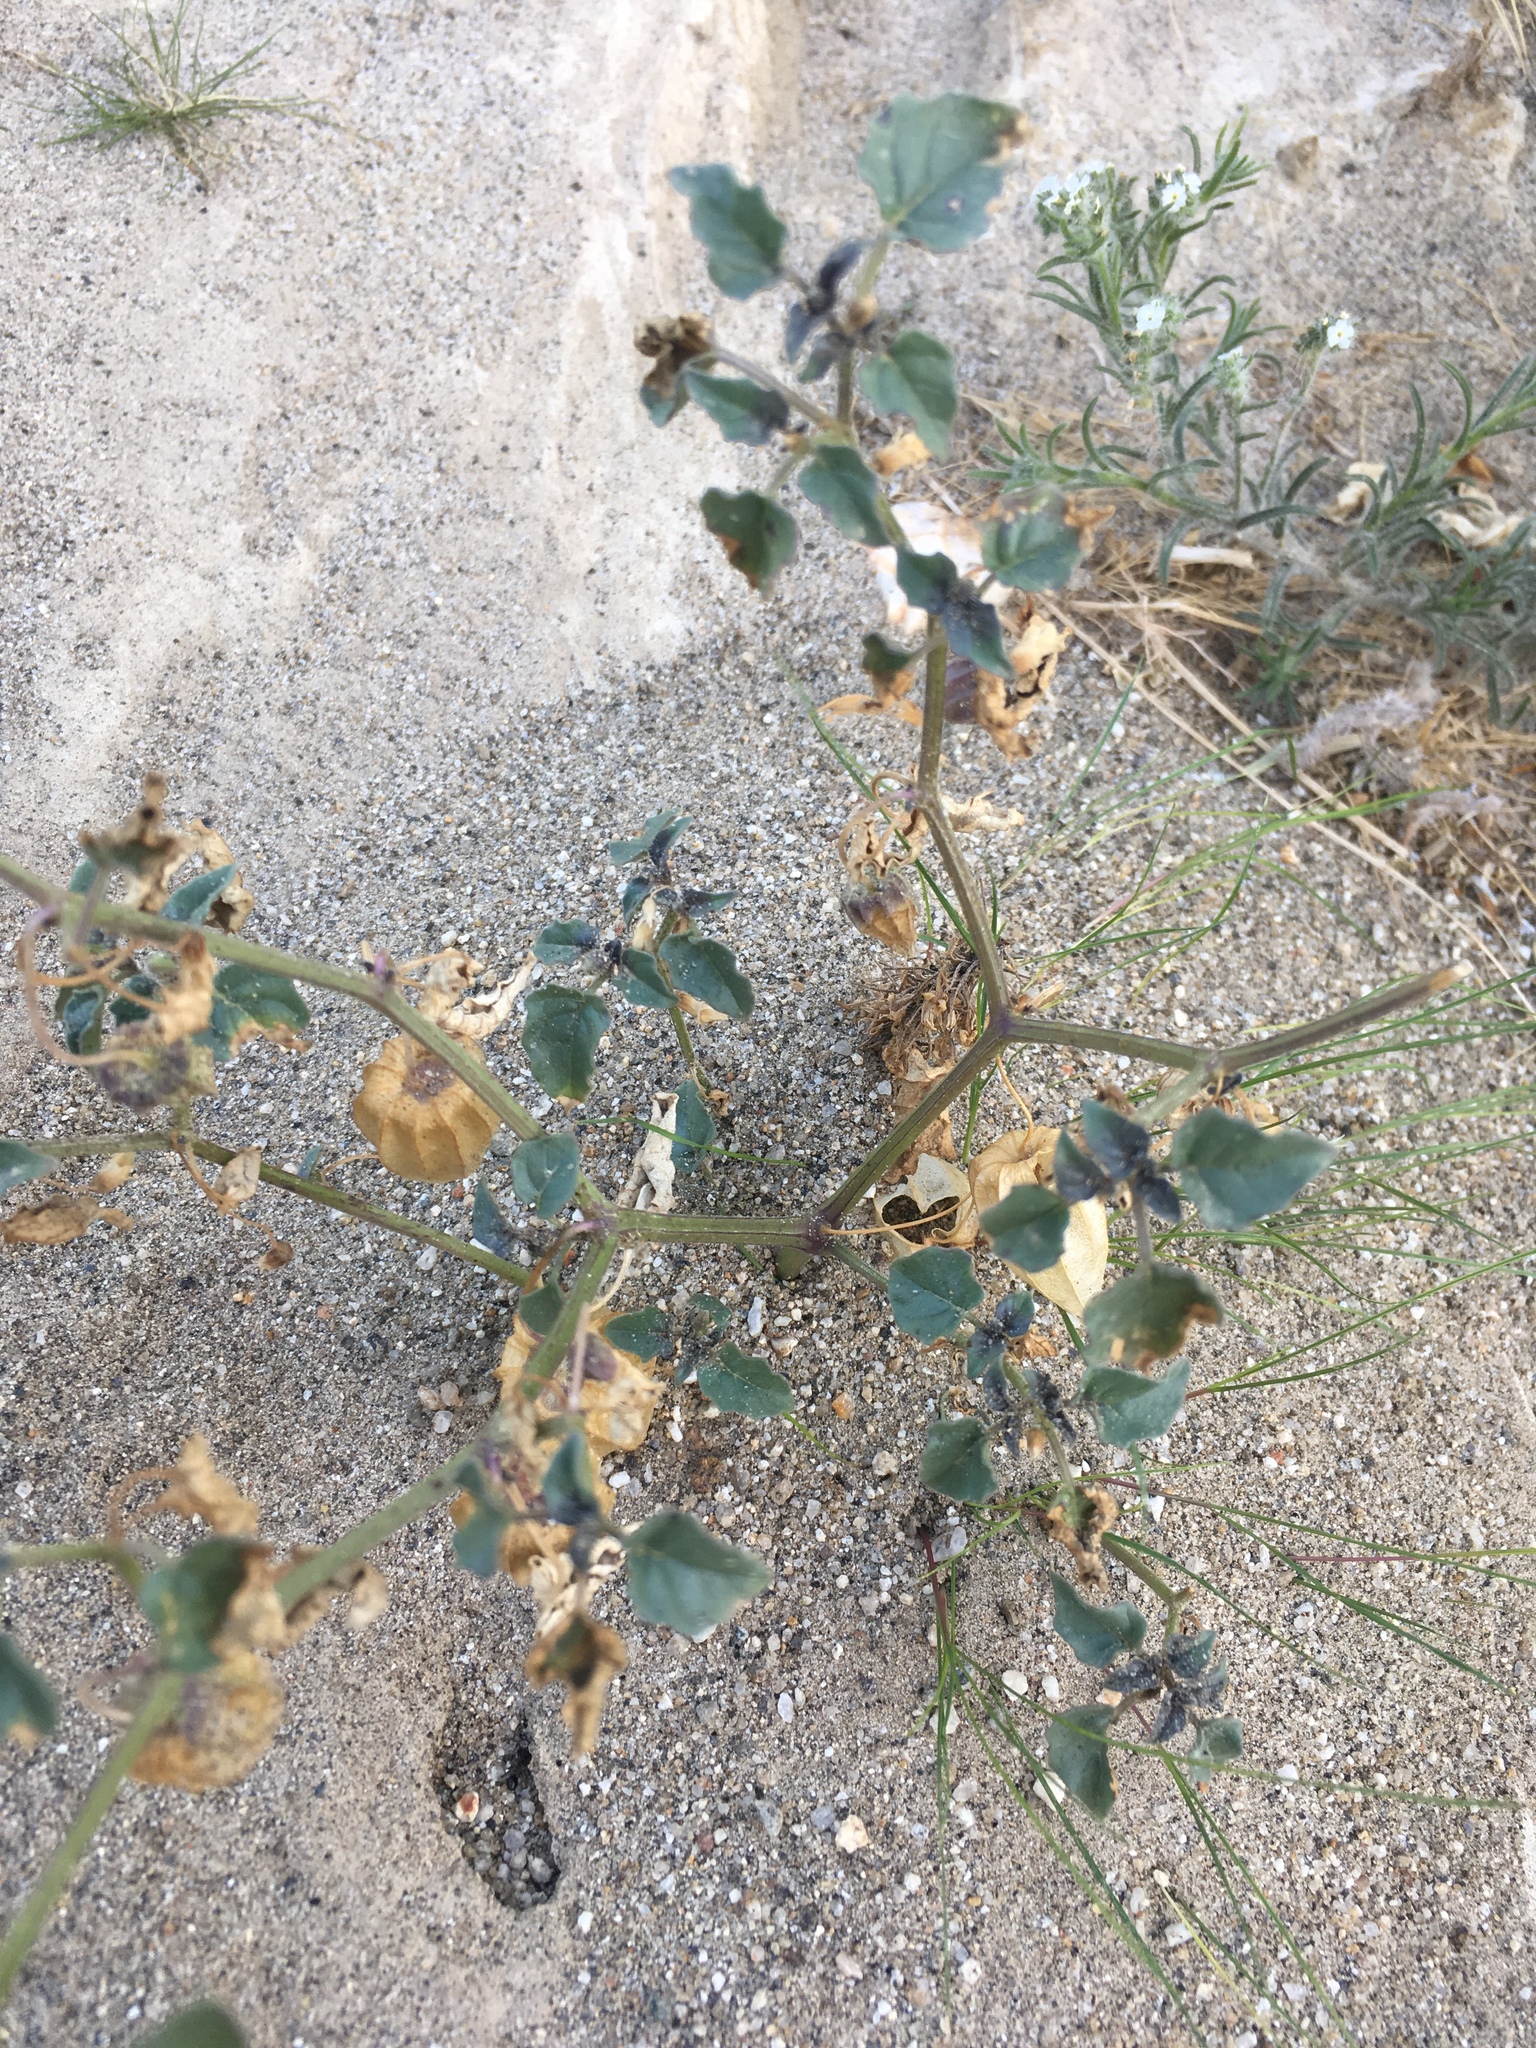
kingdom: Plantae
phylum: Tracheophyta
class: Magnoliopsida
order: Solanales
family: Solanaceae
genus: Physalis
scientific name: Physalis crassifolia
